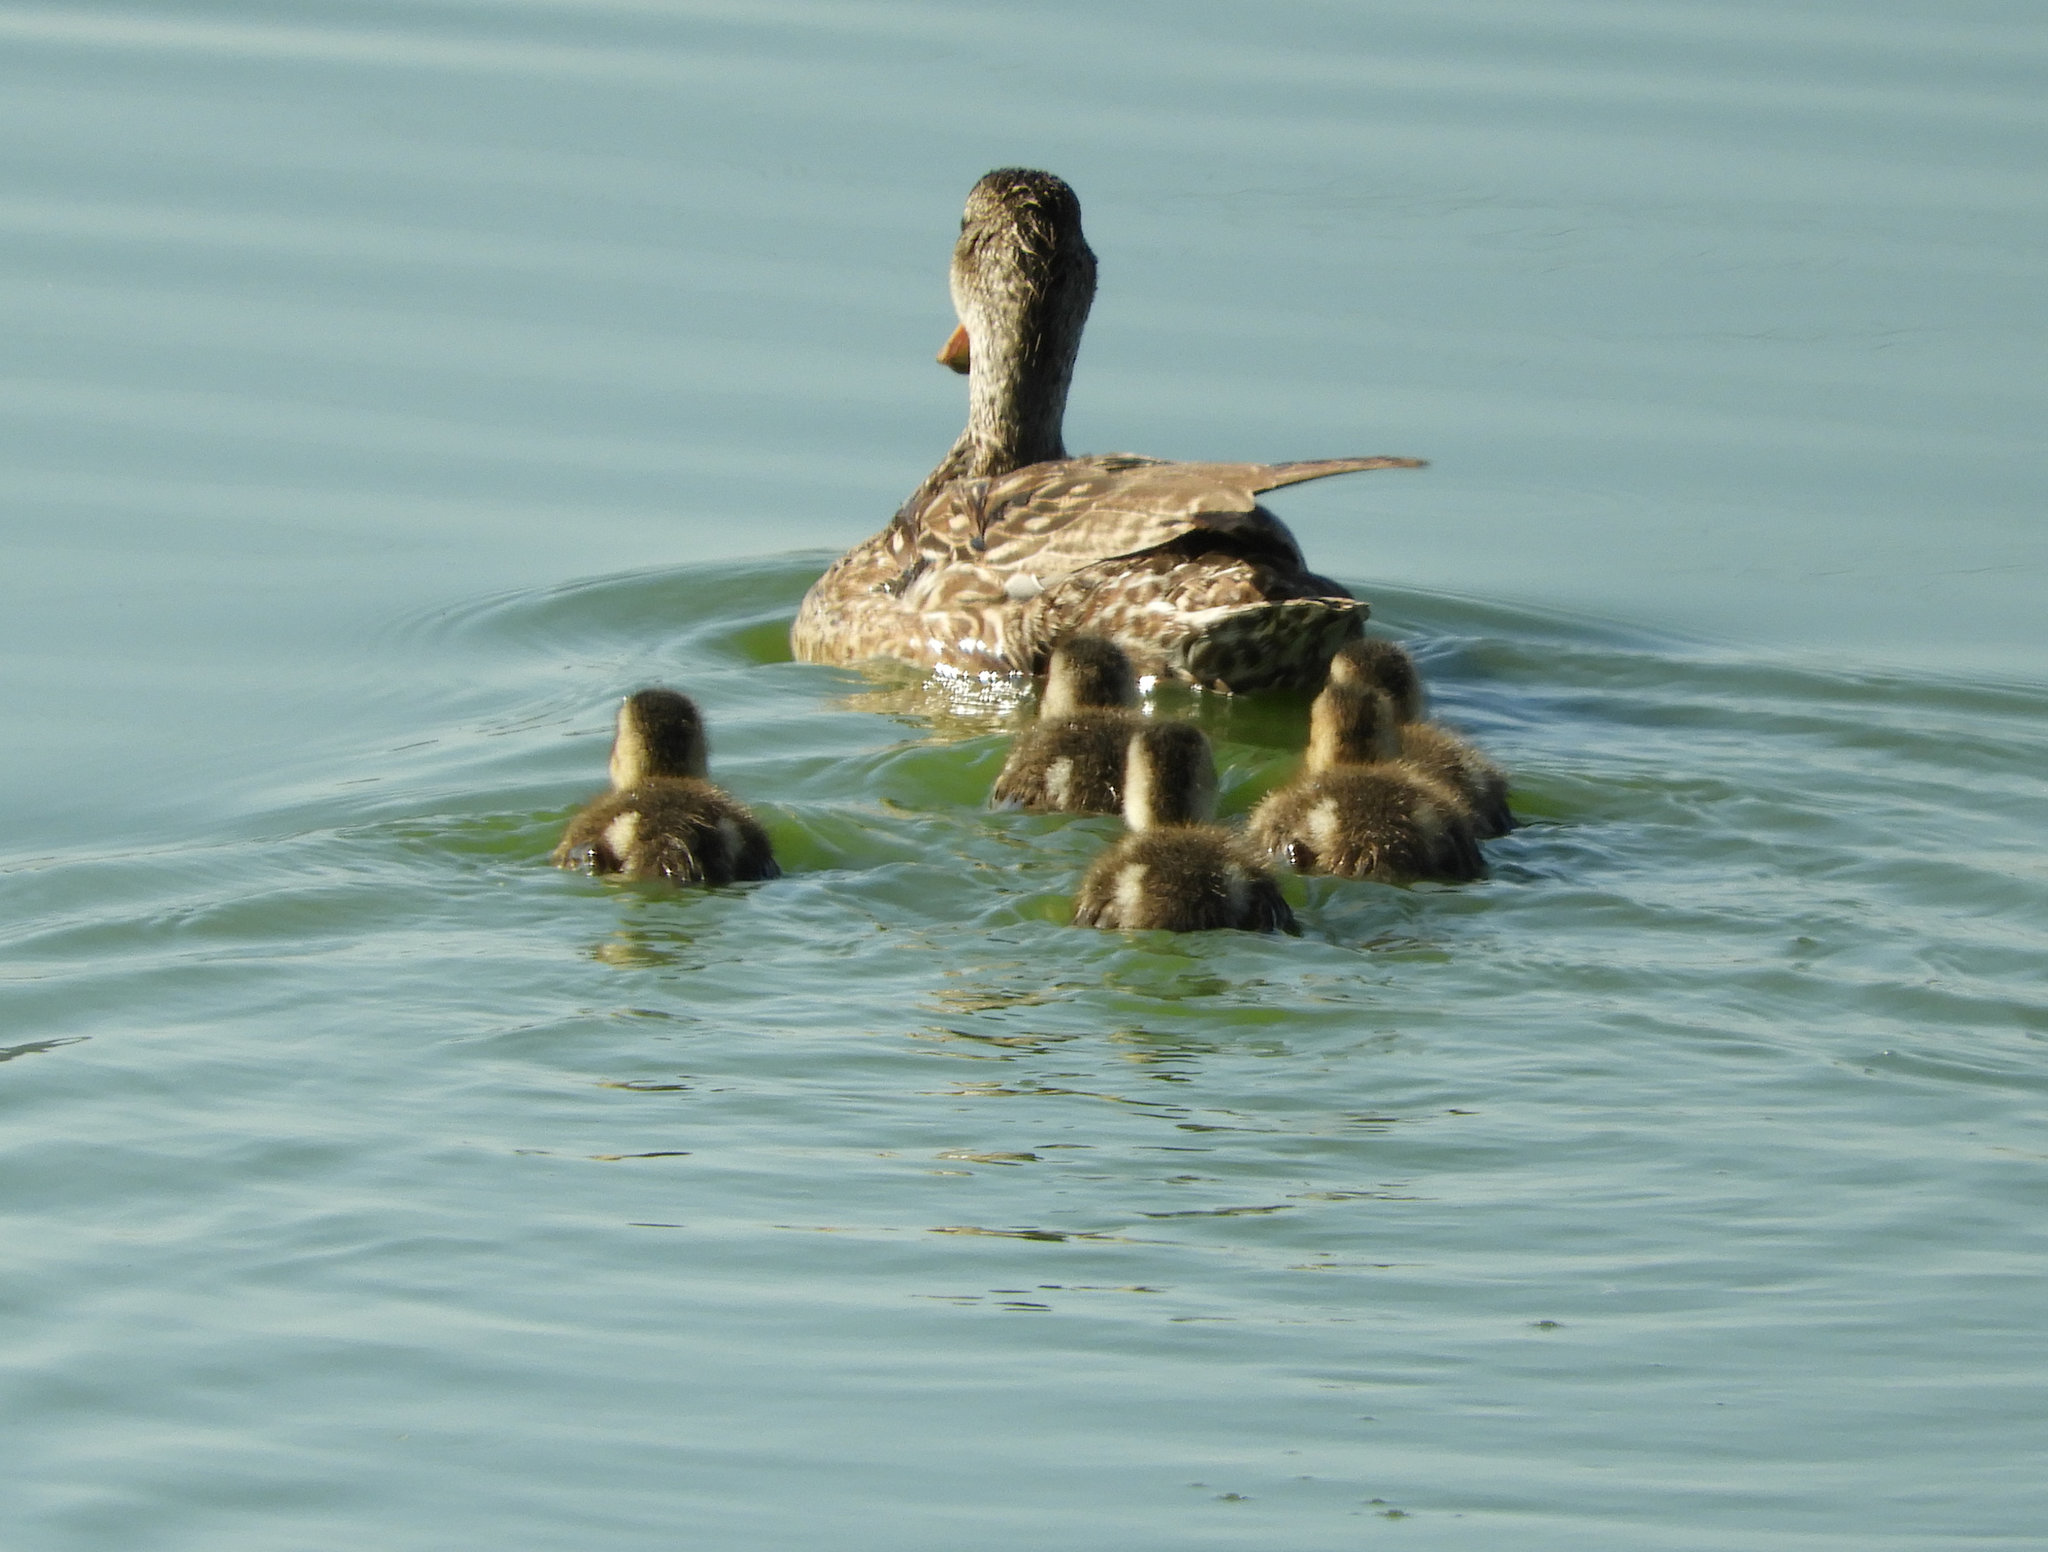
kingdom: Animalia
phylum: Chordata
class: Aves
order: Anseriformes
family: Anatidae
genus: Anas
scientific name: Anas platyrhynchos
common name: Mallard
